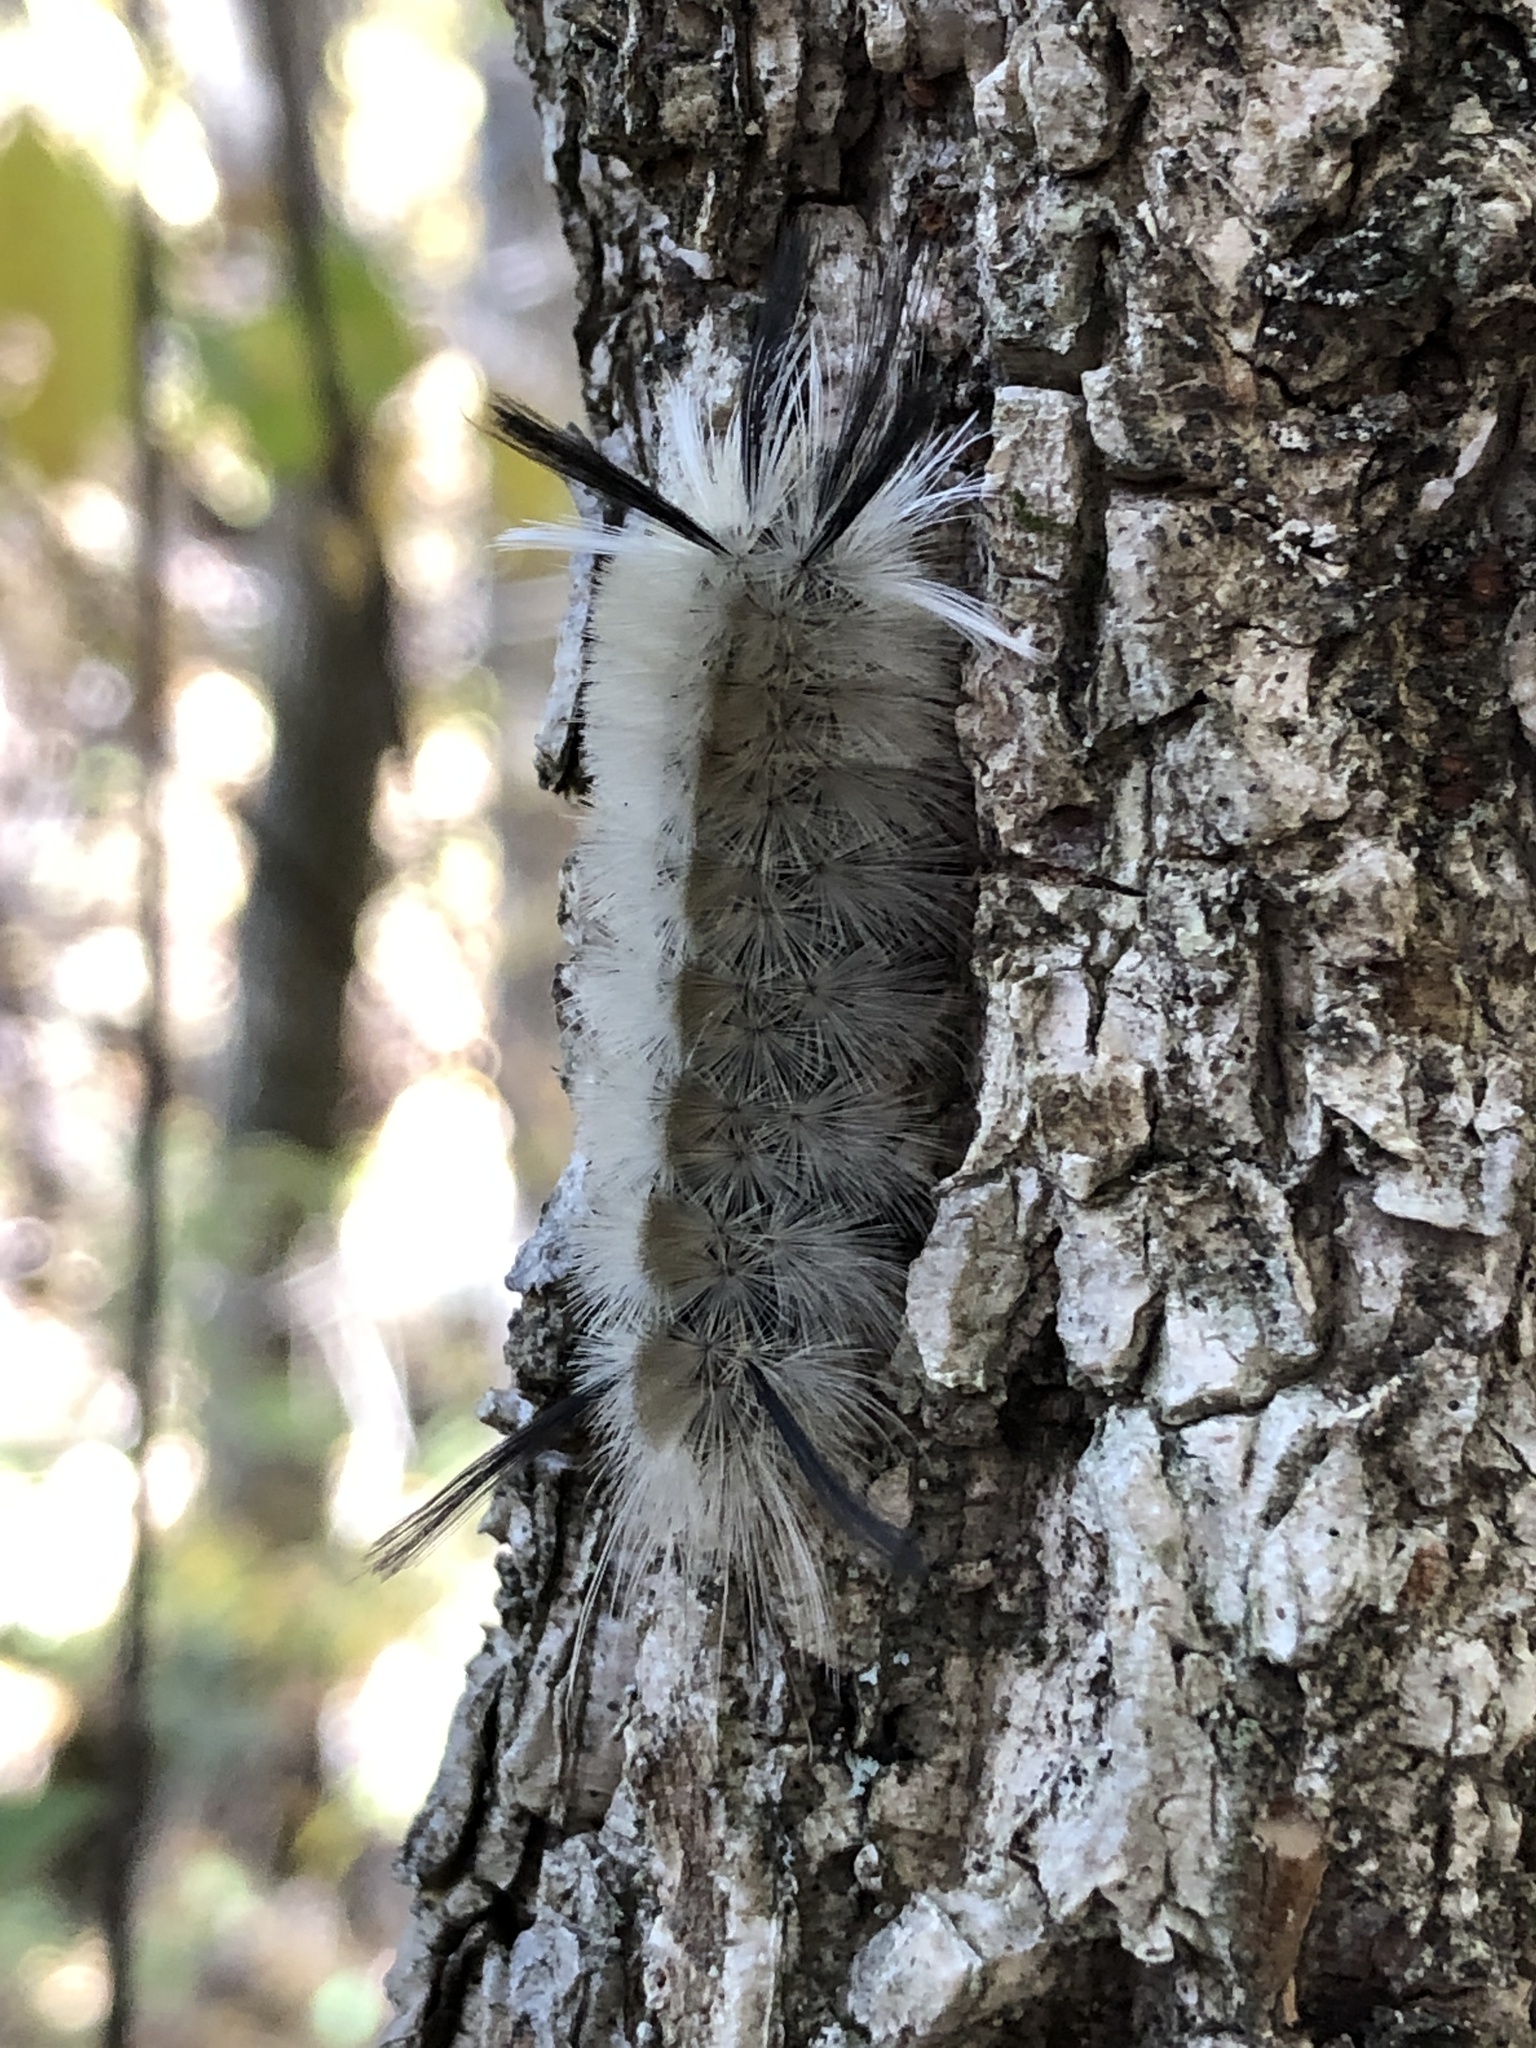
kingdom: Animalia
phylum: Arthropoda
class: Insecta
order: Lepidoptera
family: Erebidae
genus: Halysidota
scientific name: Halysidota tessellaris
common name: Banded tussock moth
